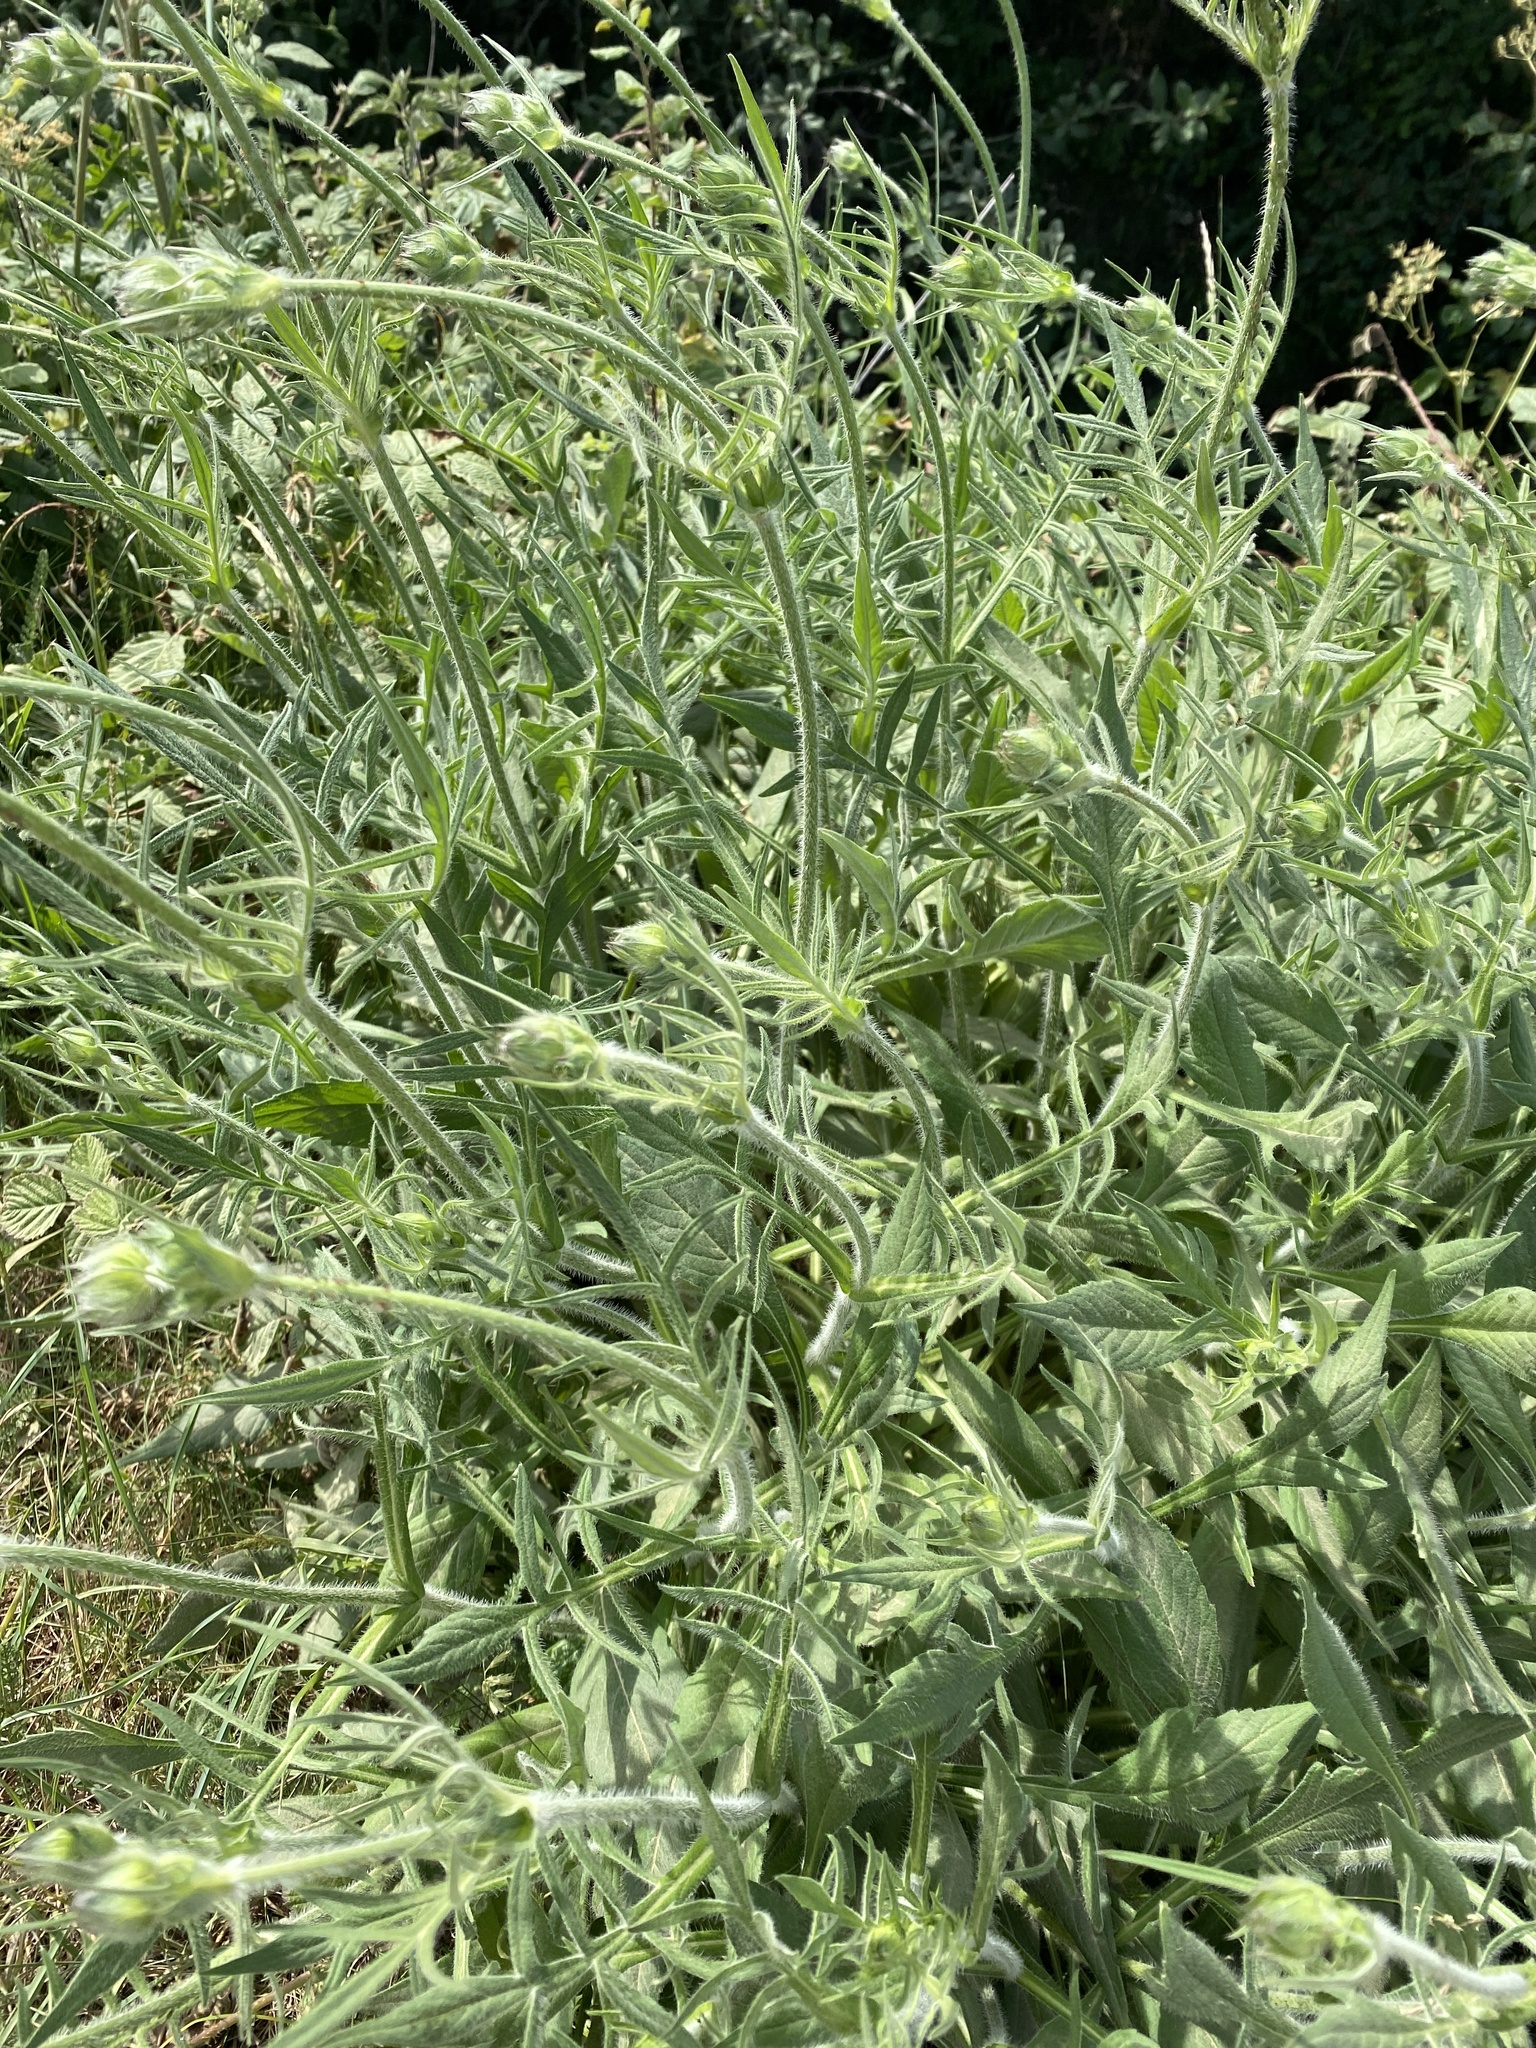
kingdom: Plantae
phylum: Tracheophyta
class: Magnoliopsida
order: Dipsacales
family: Caprifoliaceae
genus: Knautia
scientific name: Knautia arvensis
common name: Field scabiosa
